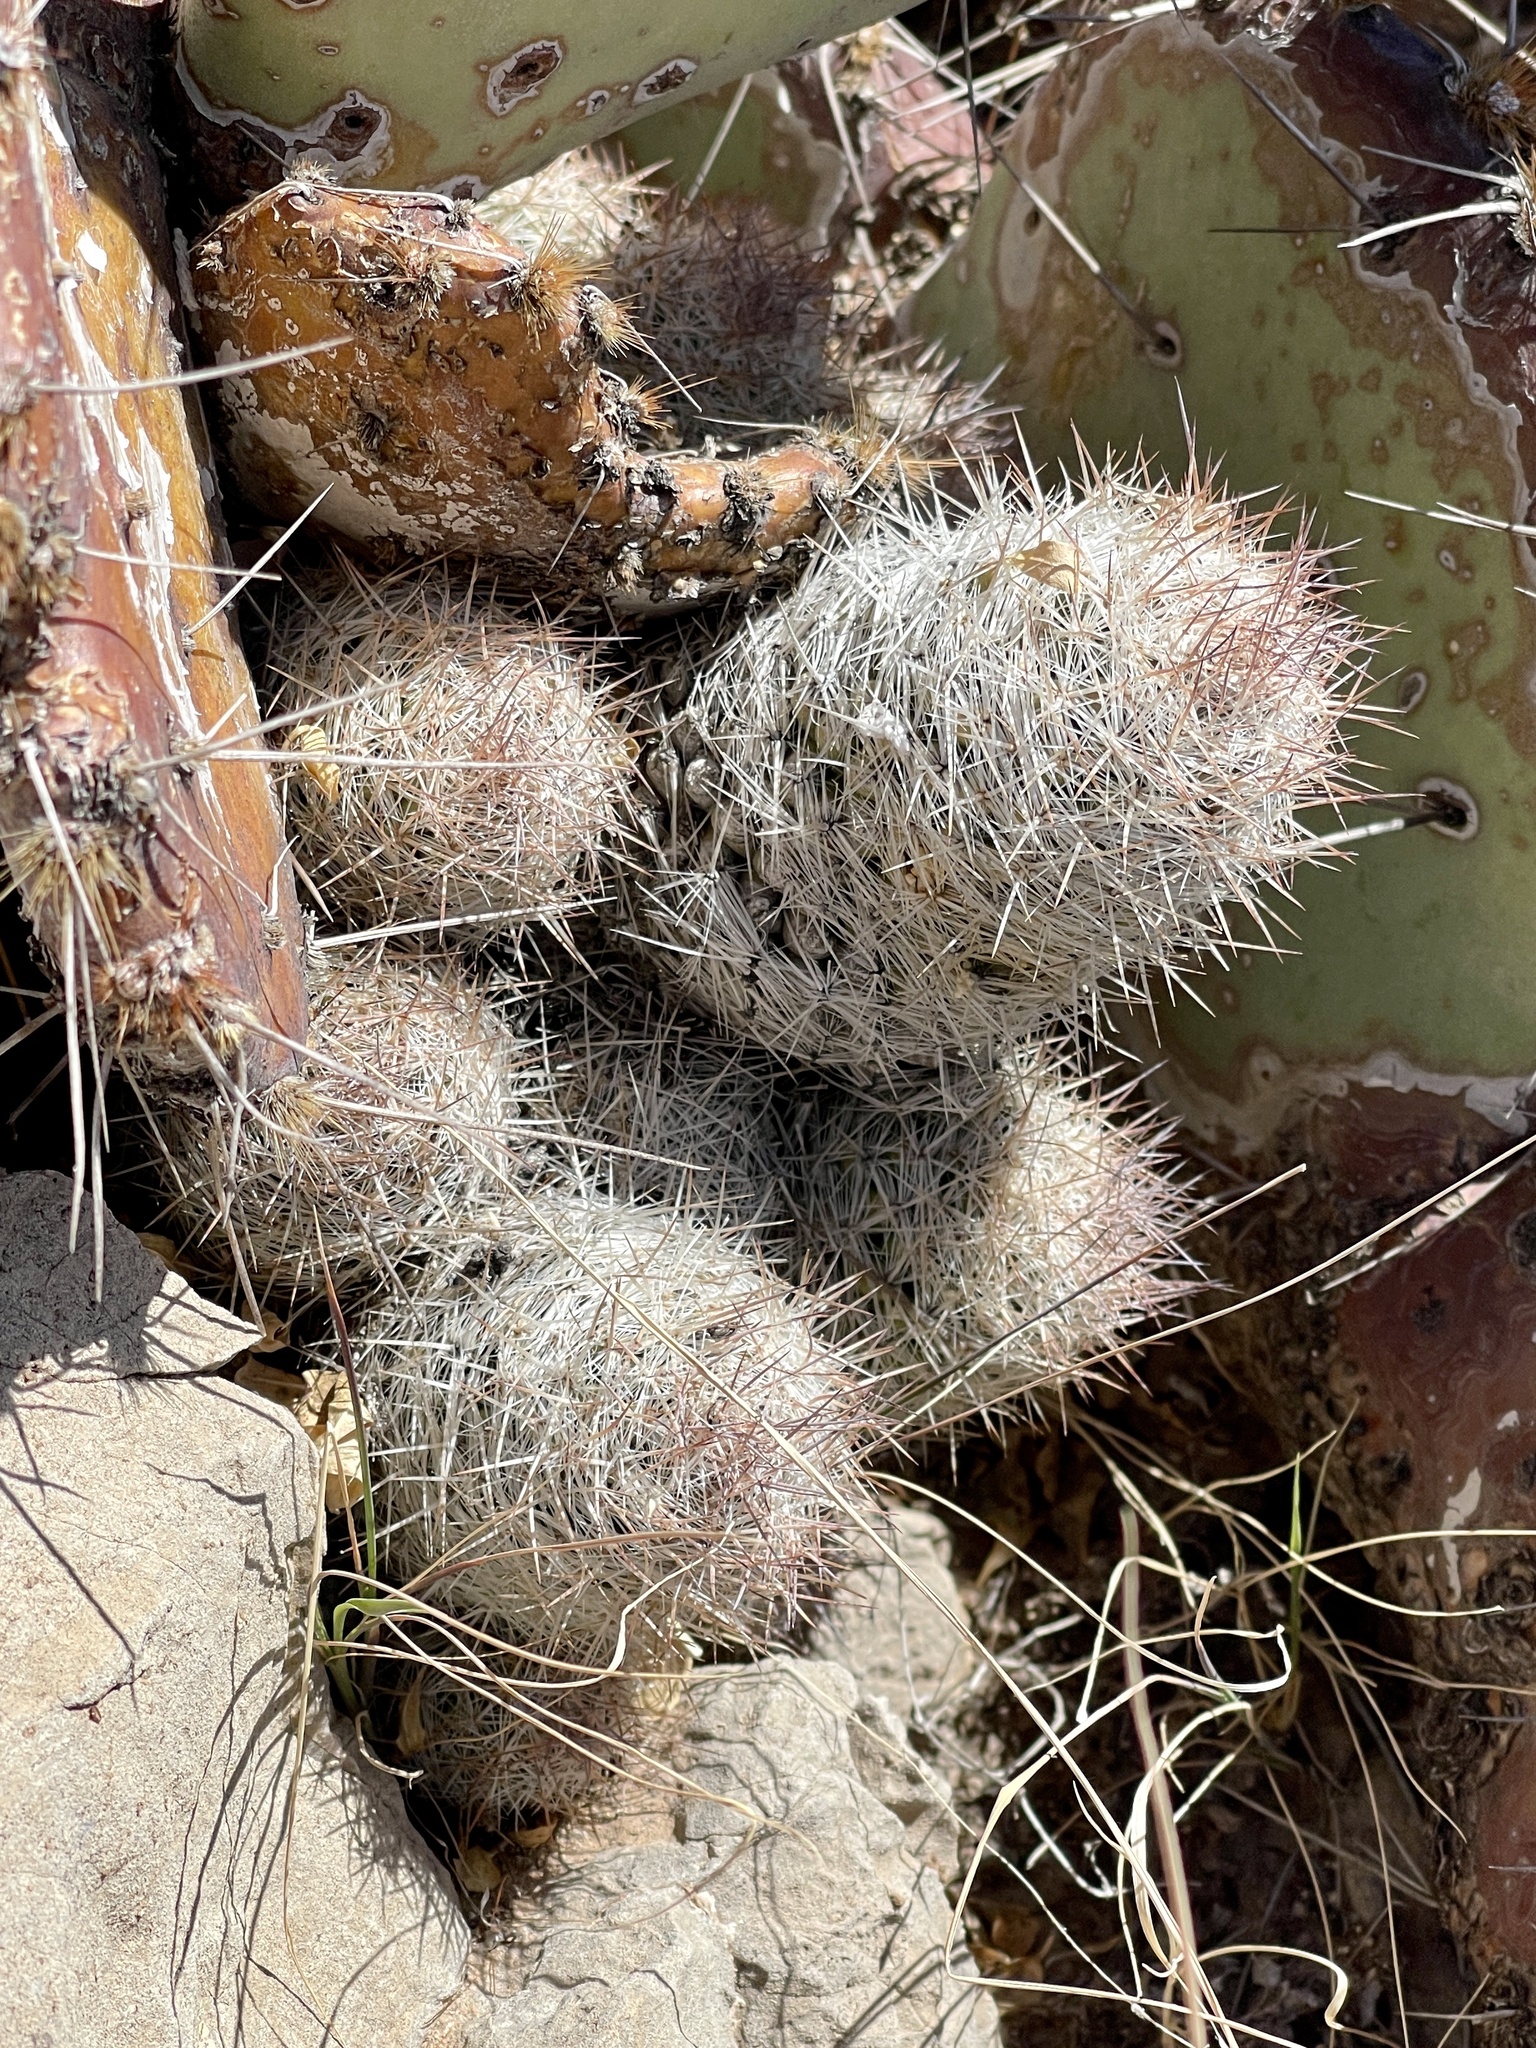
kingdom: Plantae
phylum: Tracheophyta
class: Magnoliopsida
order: Caryophyllales
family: Cactaceae
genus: Pelecyphora
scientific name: Pelecyphora tuberculosa
